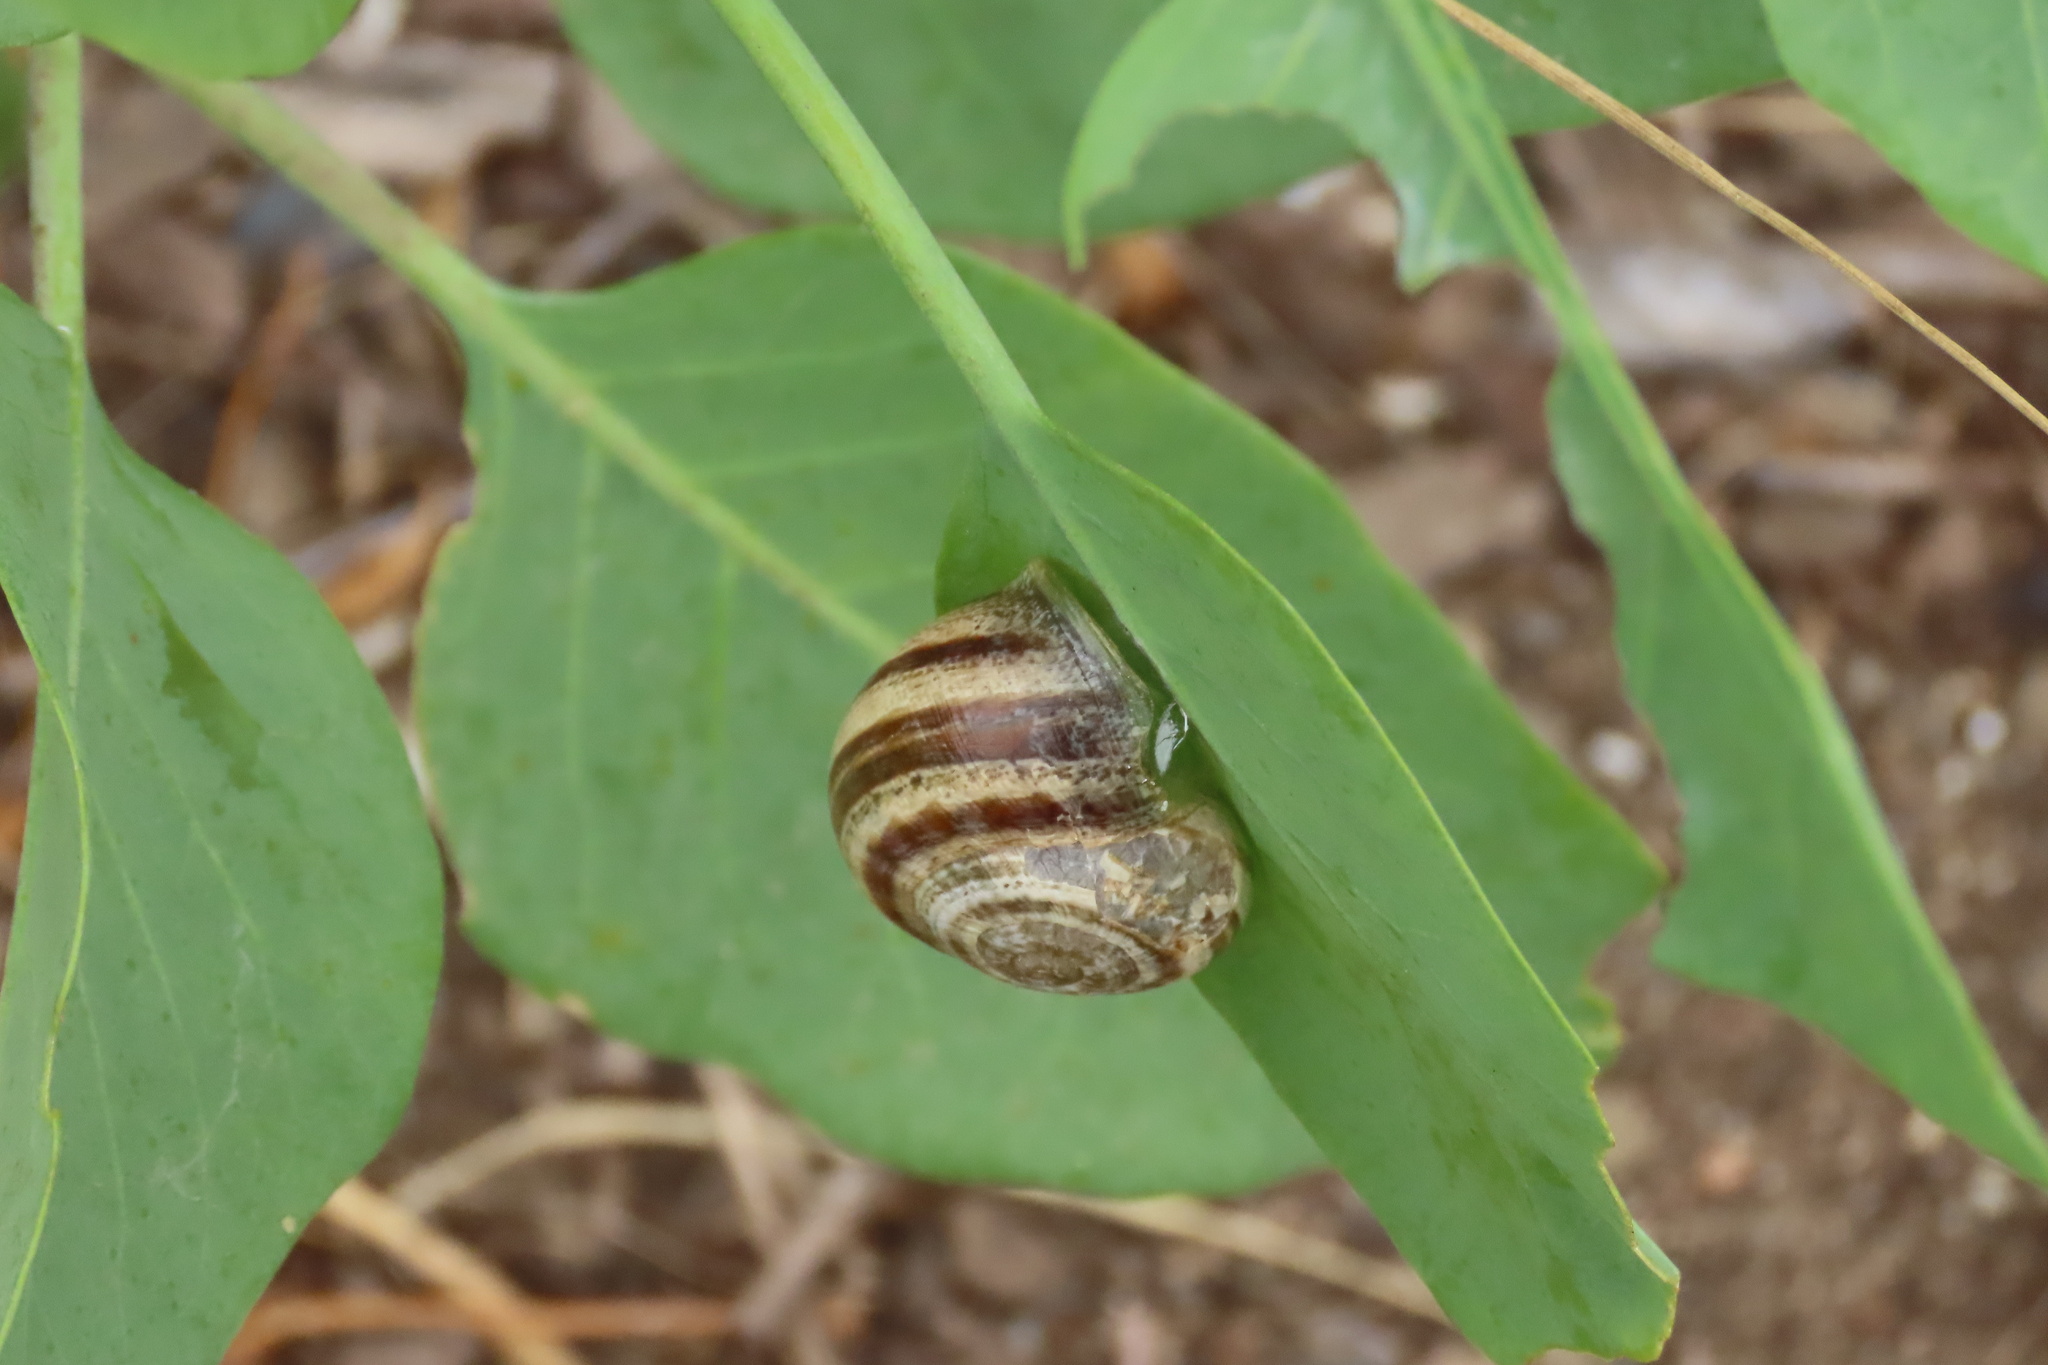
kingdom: Animalia
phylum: Mollusca
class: Gastropoda
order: Stylommatophora
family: Helicidae
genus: Otala
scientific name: Otala lactea
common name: Milk snail
